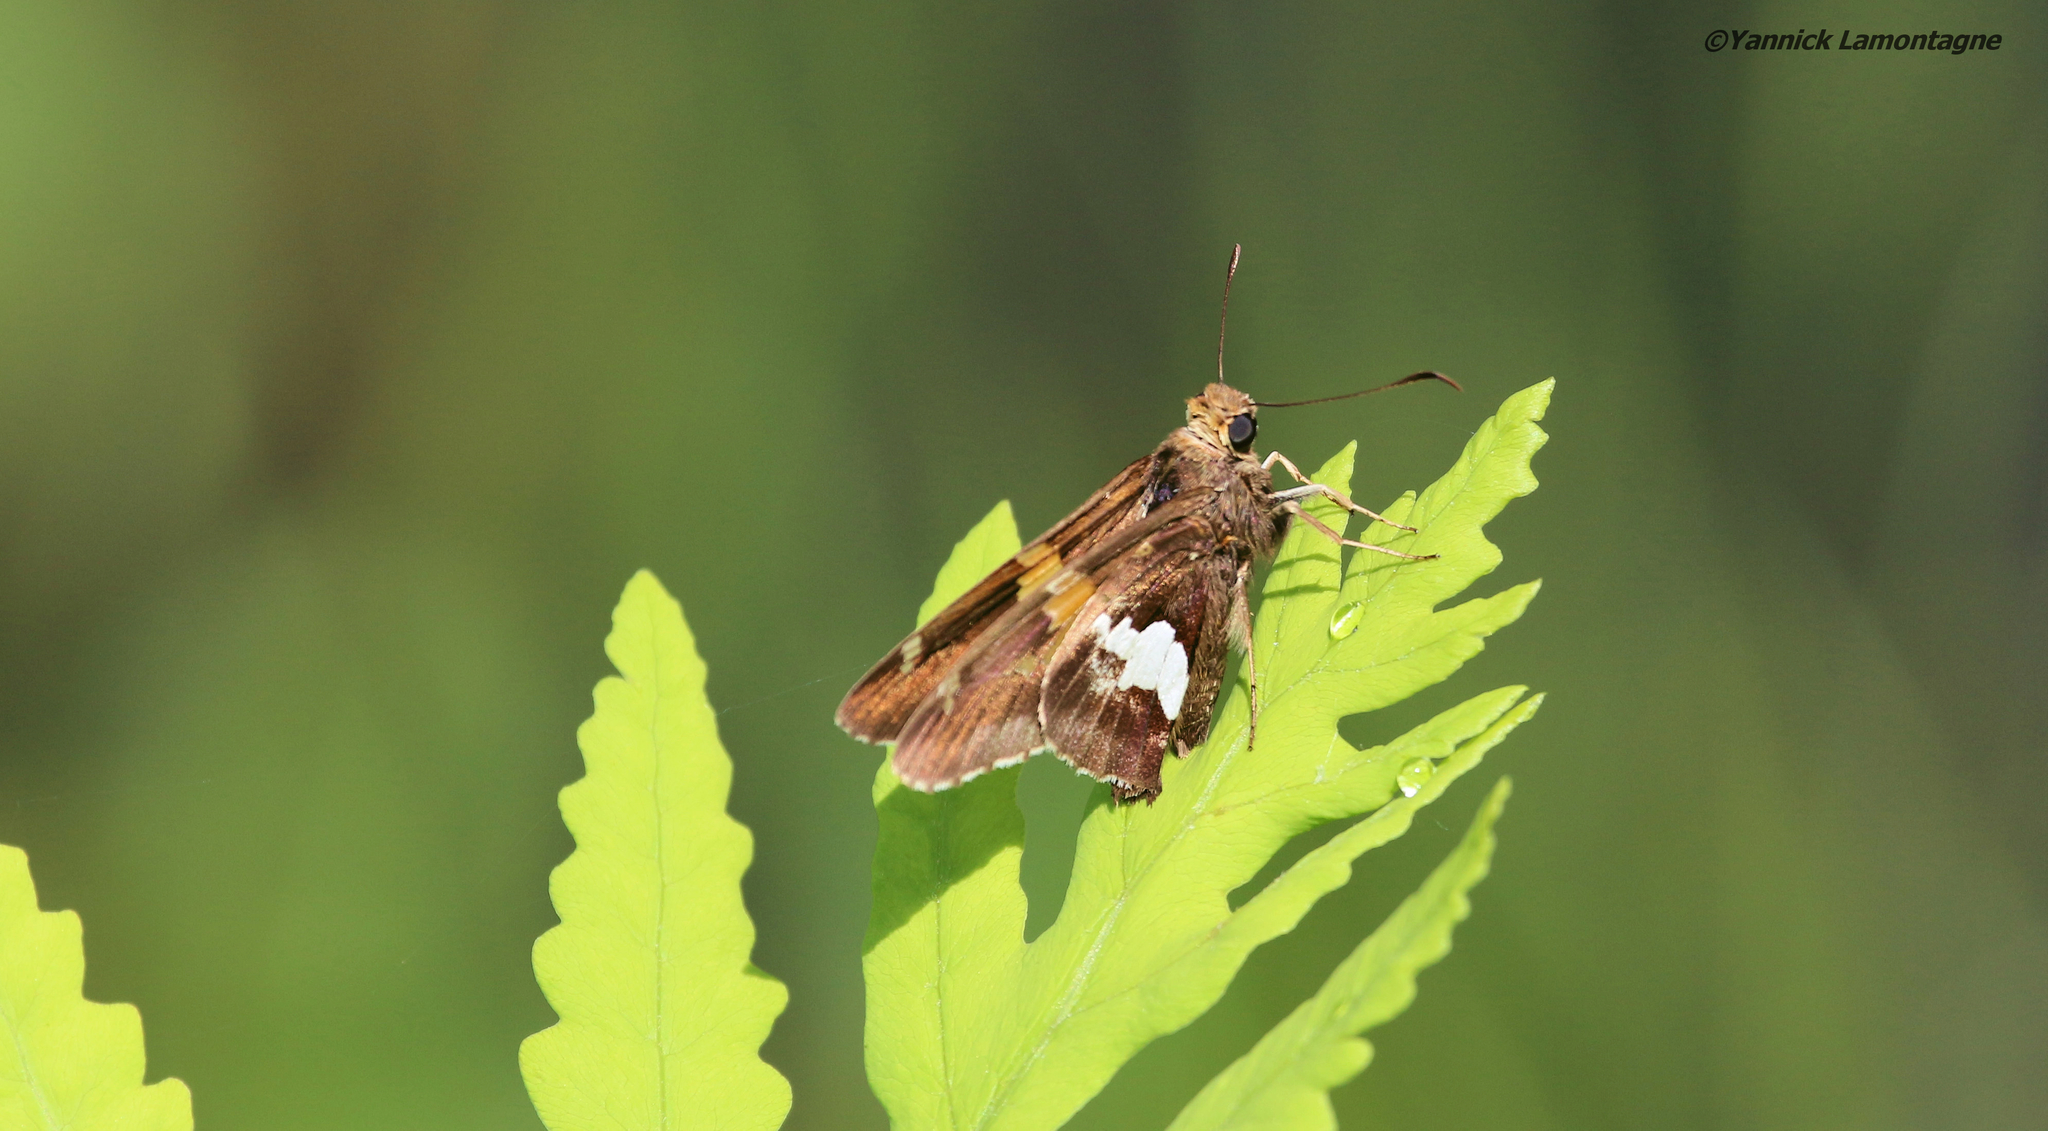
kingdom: Animalia
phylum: Arthropoda
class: Insecta
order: Lepidoptera
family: Hesperiidae
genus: Epargyreus
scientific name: Epargyreus clarus
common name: Silver-spotted skipper
